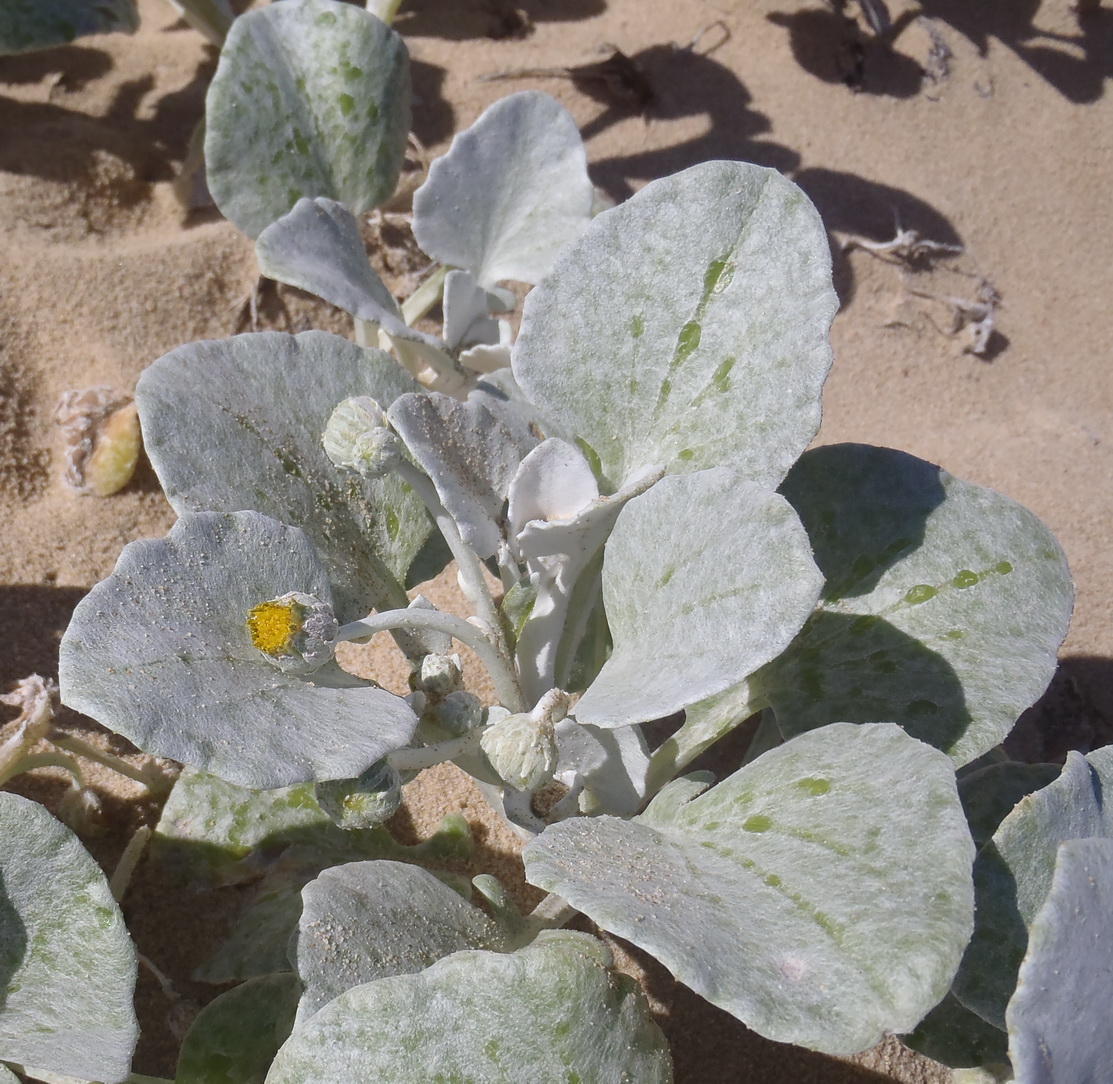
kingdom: Plantae
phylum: Tracheophyta
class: Magnoliopsida
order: Asterales
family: Asteraceae
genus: Arctotheca
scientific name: Arctotheca populifolia
